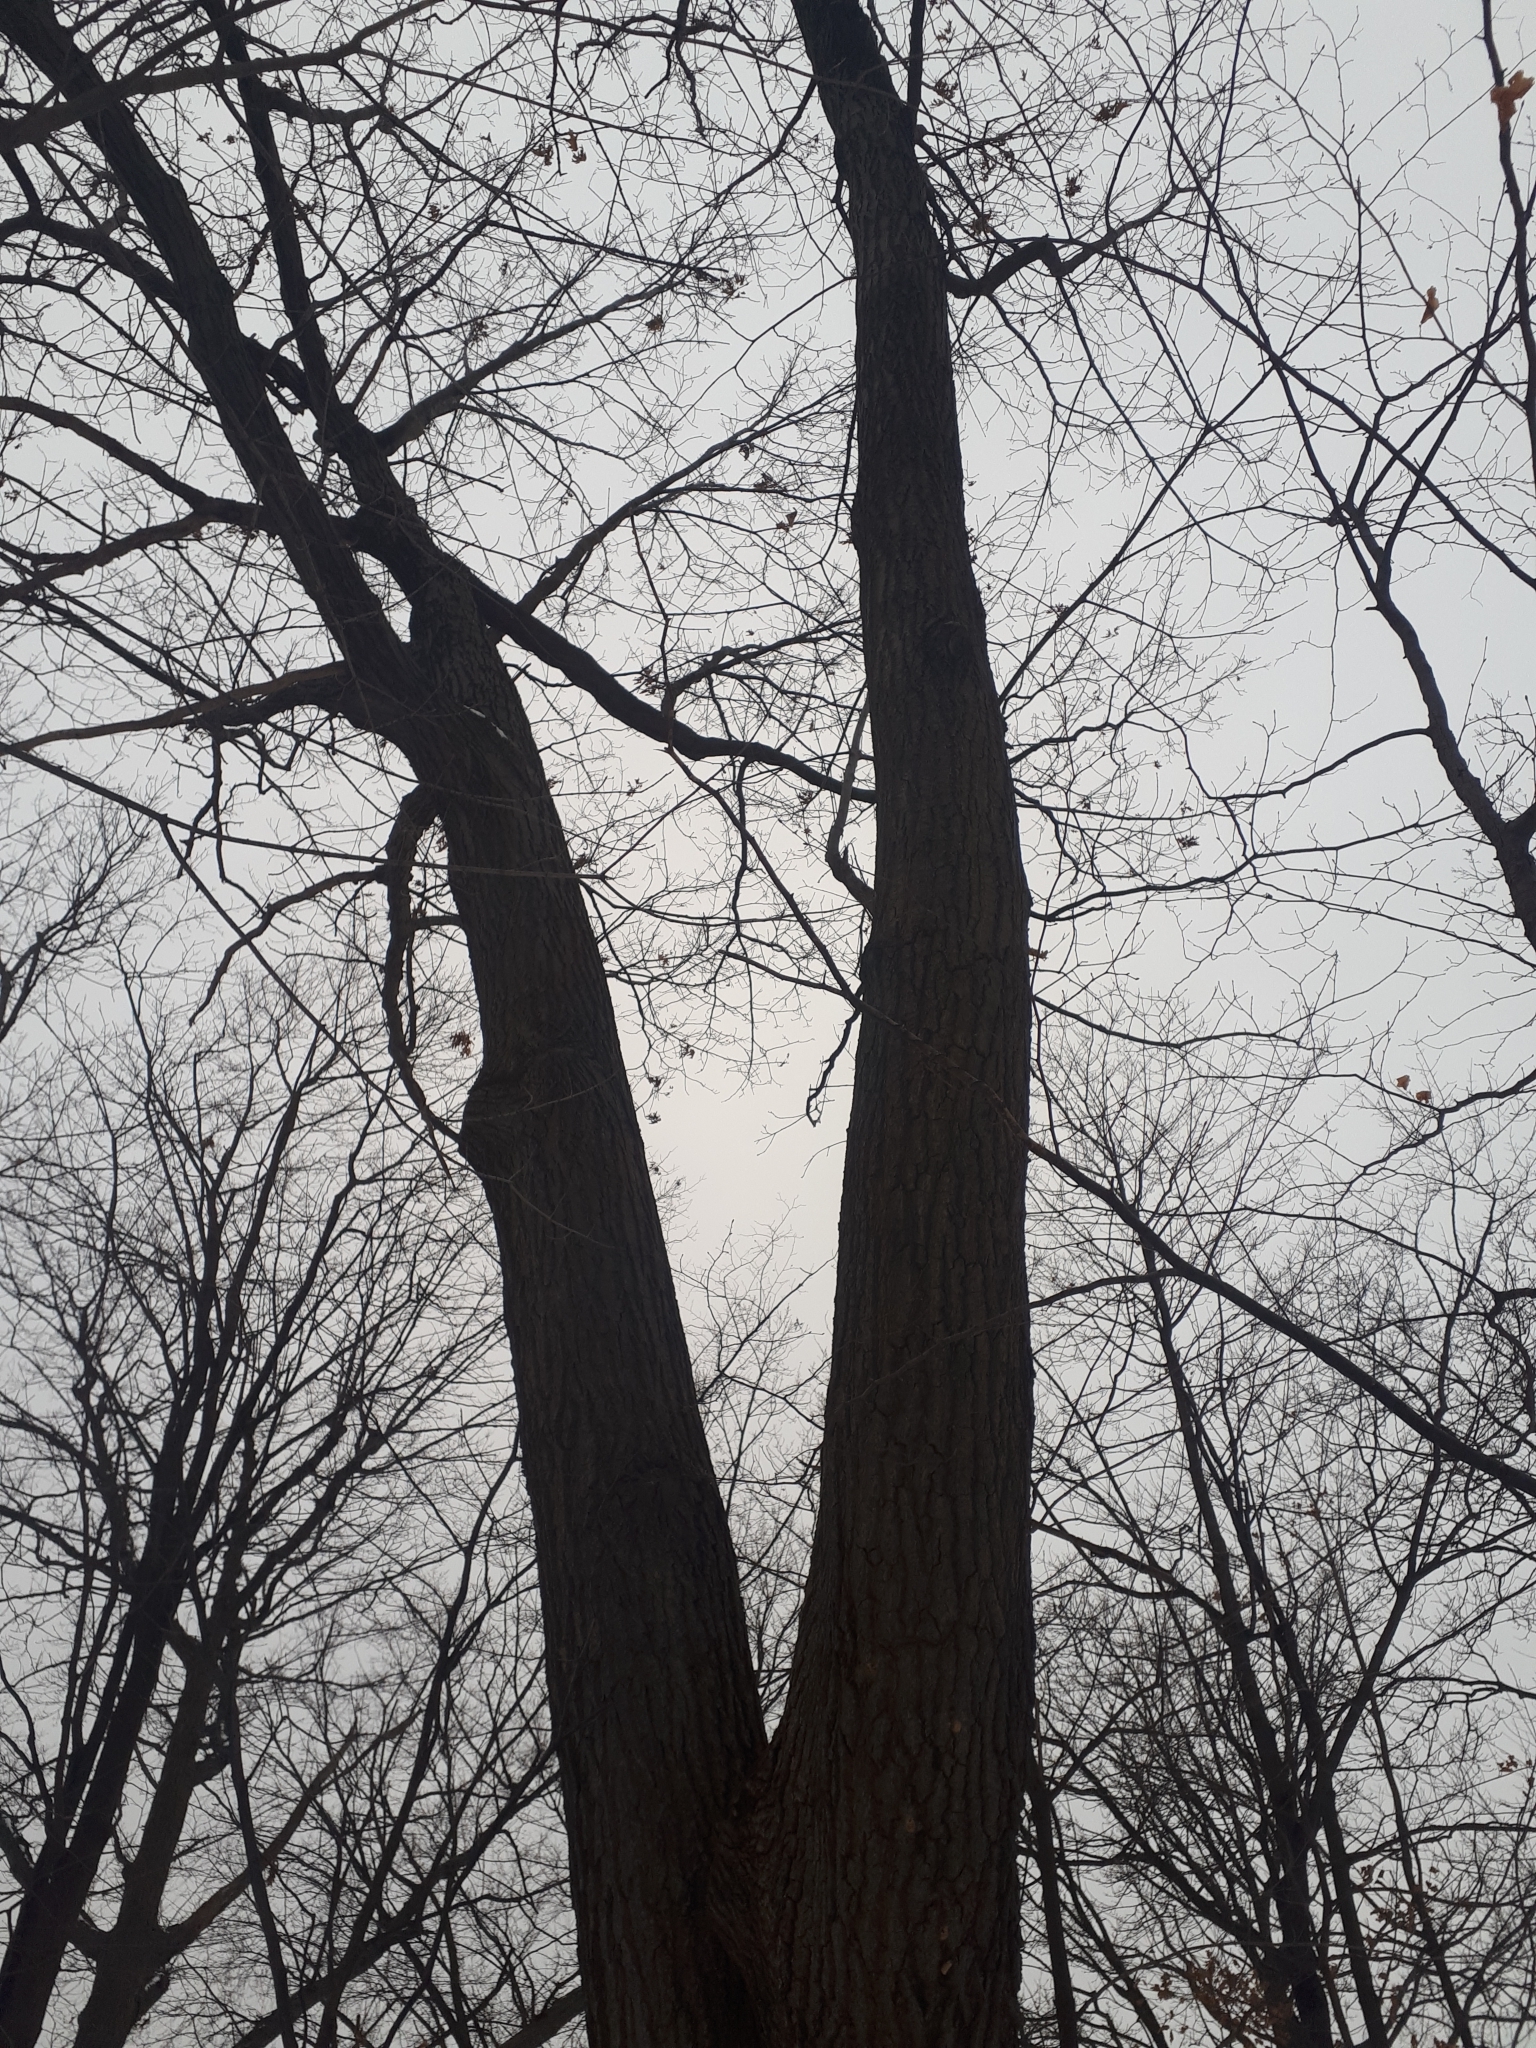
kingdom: Plantae
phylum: Tracheophyta
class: Magnoliopsida
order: Fagales
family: Fagaceae
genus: Quercus
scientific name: Quercus rubra
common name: Red oak
